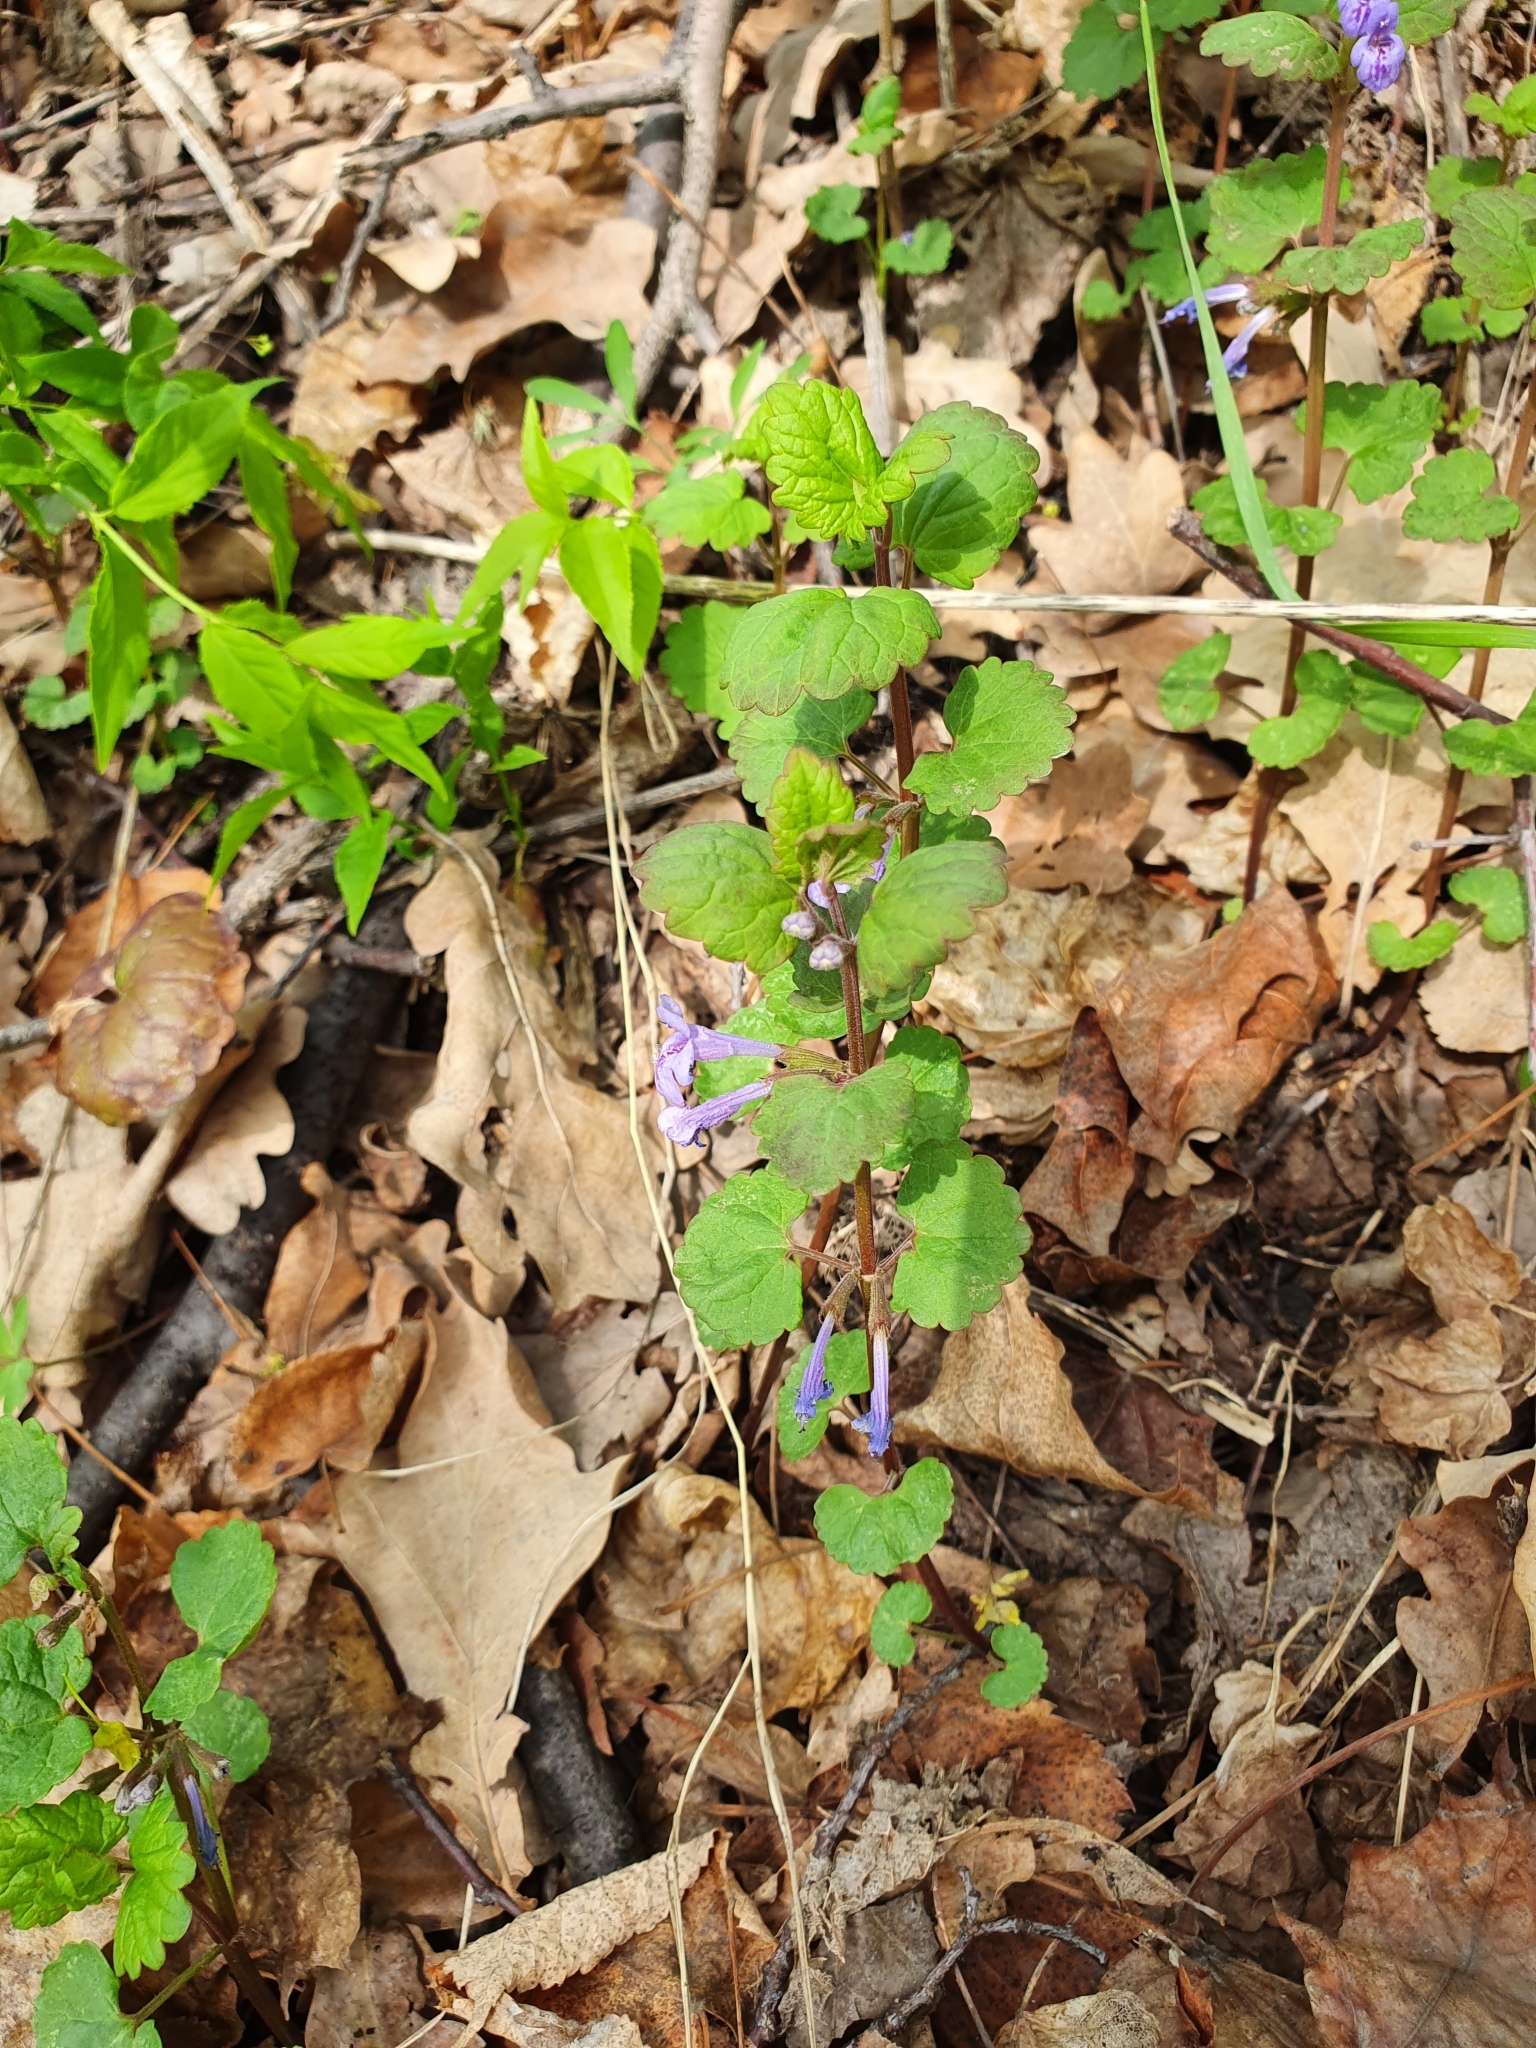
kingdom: Plantae
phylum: Tracheophyta
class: Magnoliopsida
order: Lamiales
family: Lamiaceae
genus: Glechoma
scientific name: Glechoma hederacea
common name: Ground ivy
